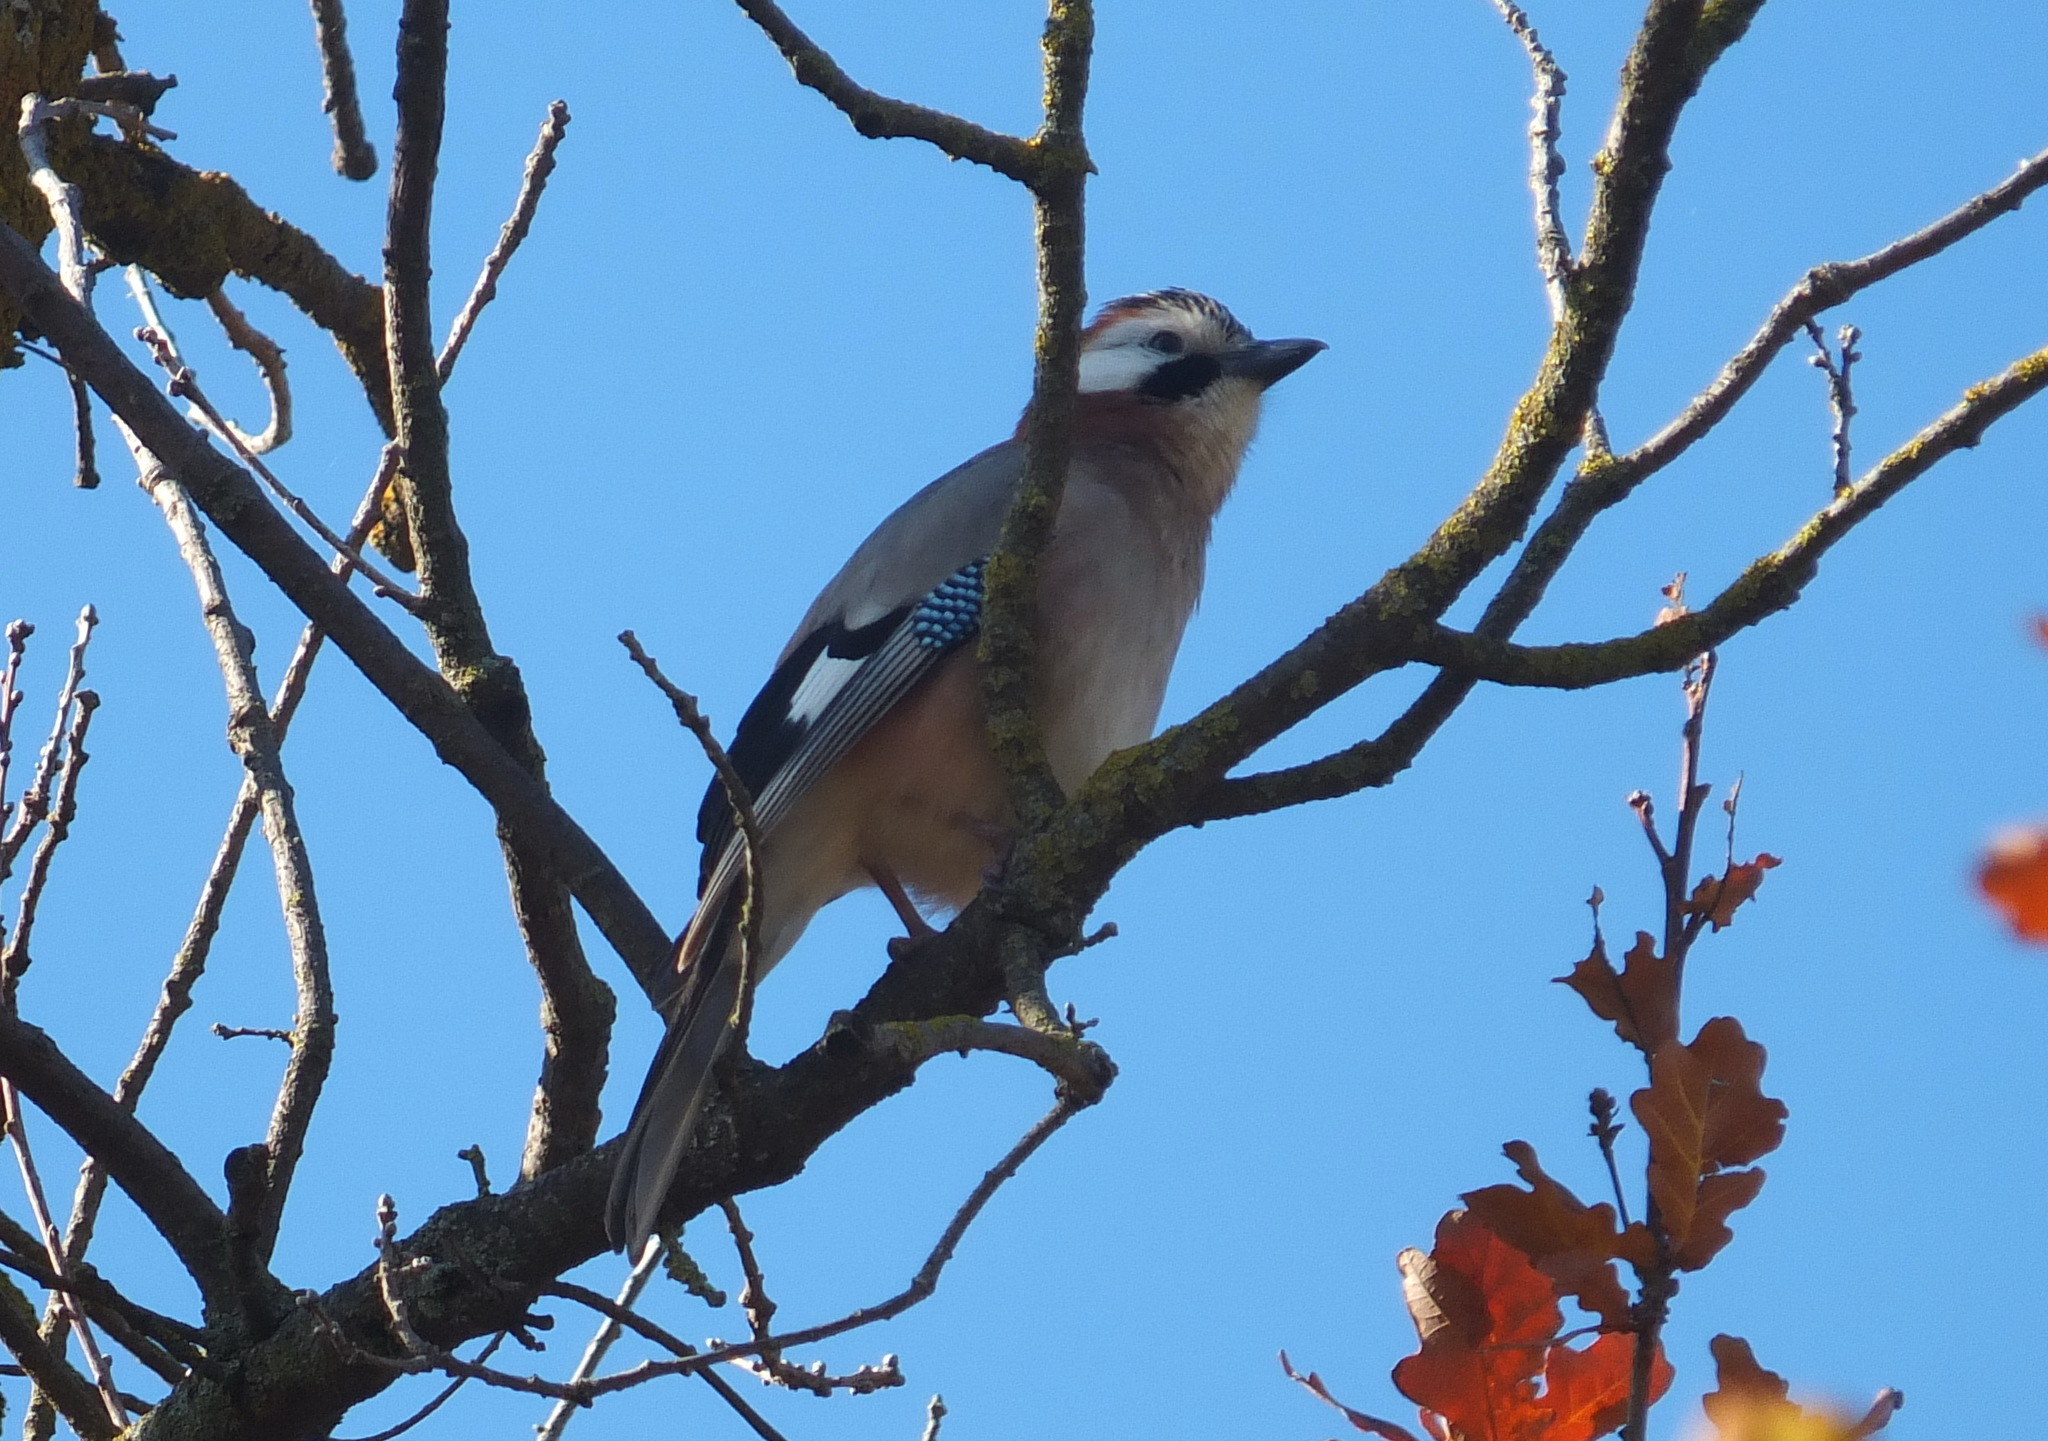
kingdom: Animalia
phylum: Chordata
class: Aves
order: Passeriformes
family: Corvidae
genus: Garrulus
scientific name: Garrulus glandarius
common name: Eurasian jay
